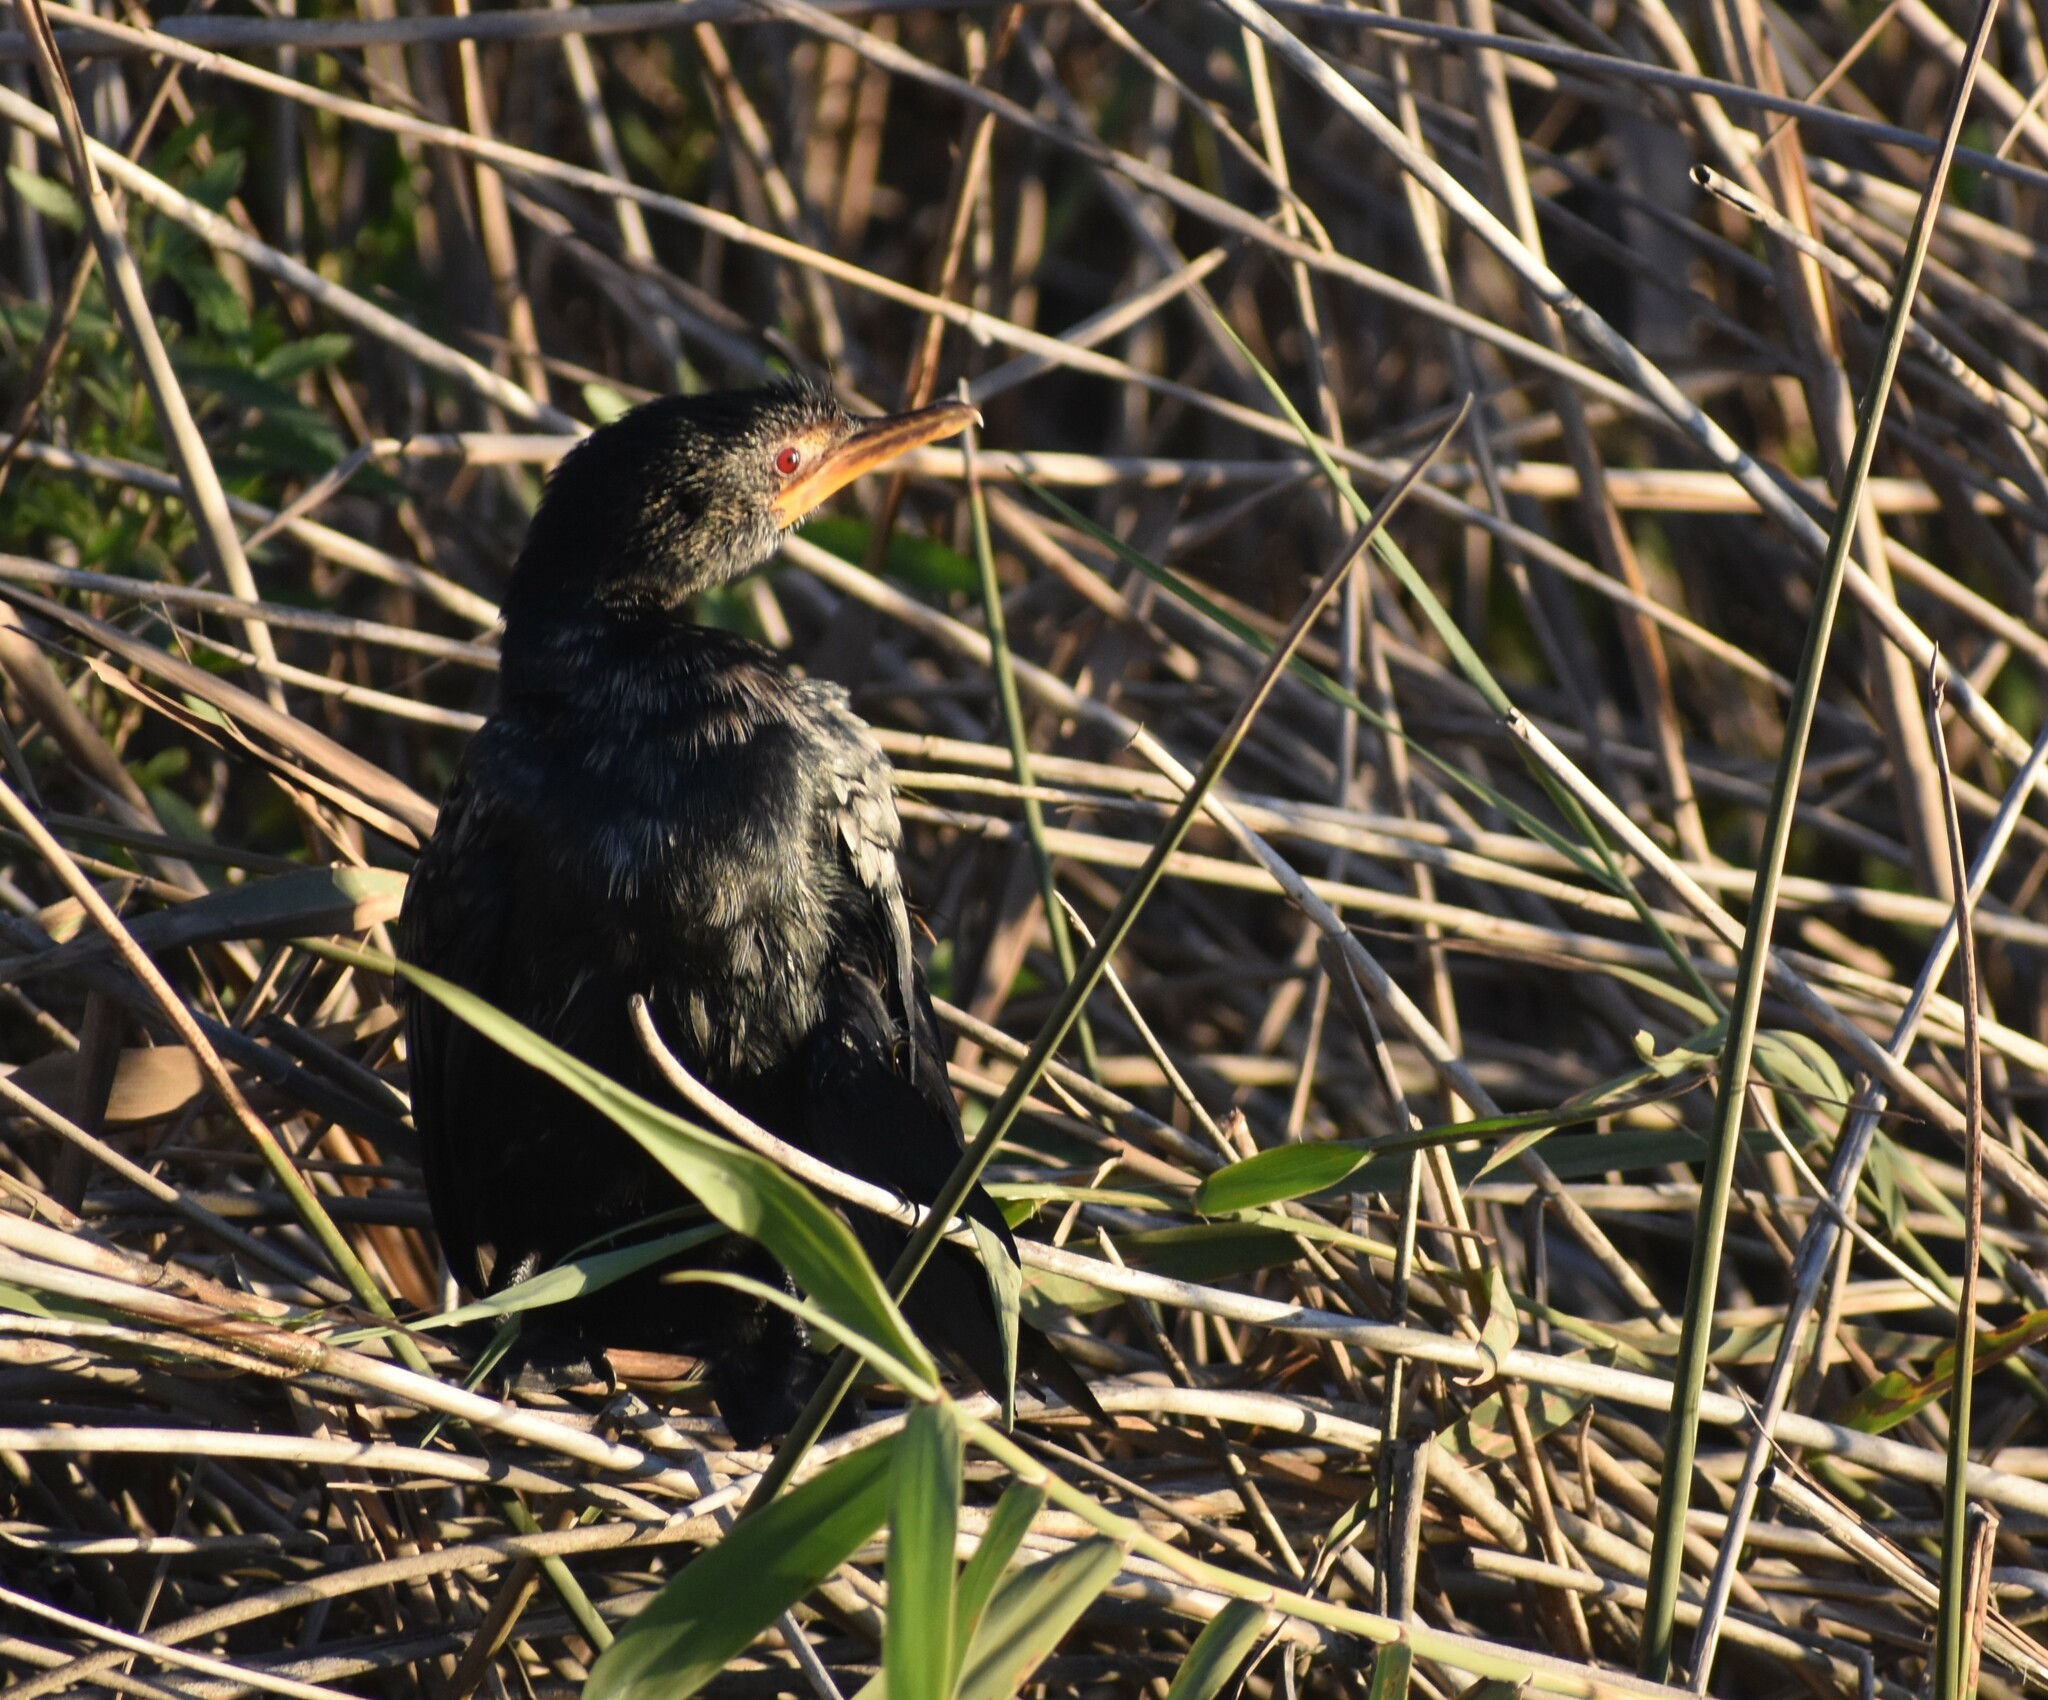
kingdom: Animalia
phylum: Chordata
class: Aves
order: Suliformes
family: Phalacrocoracidae
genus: Microcarbo
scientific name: Microcarbo africanus
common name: Long-tailed cormorant
